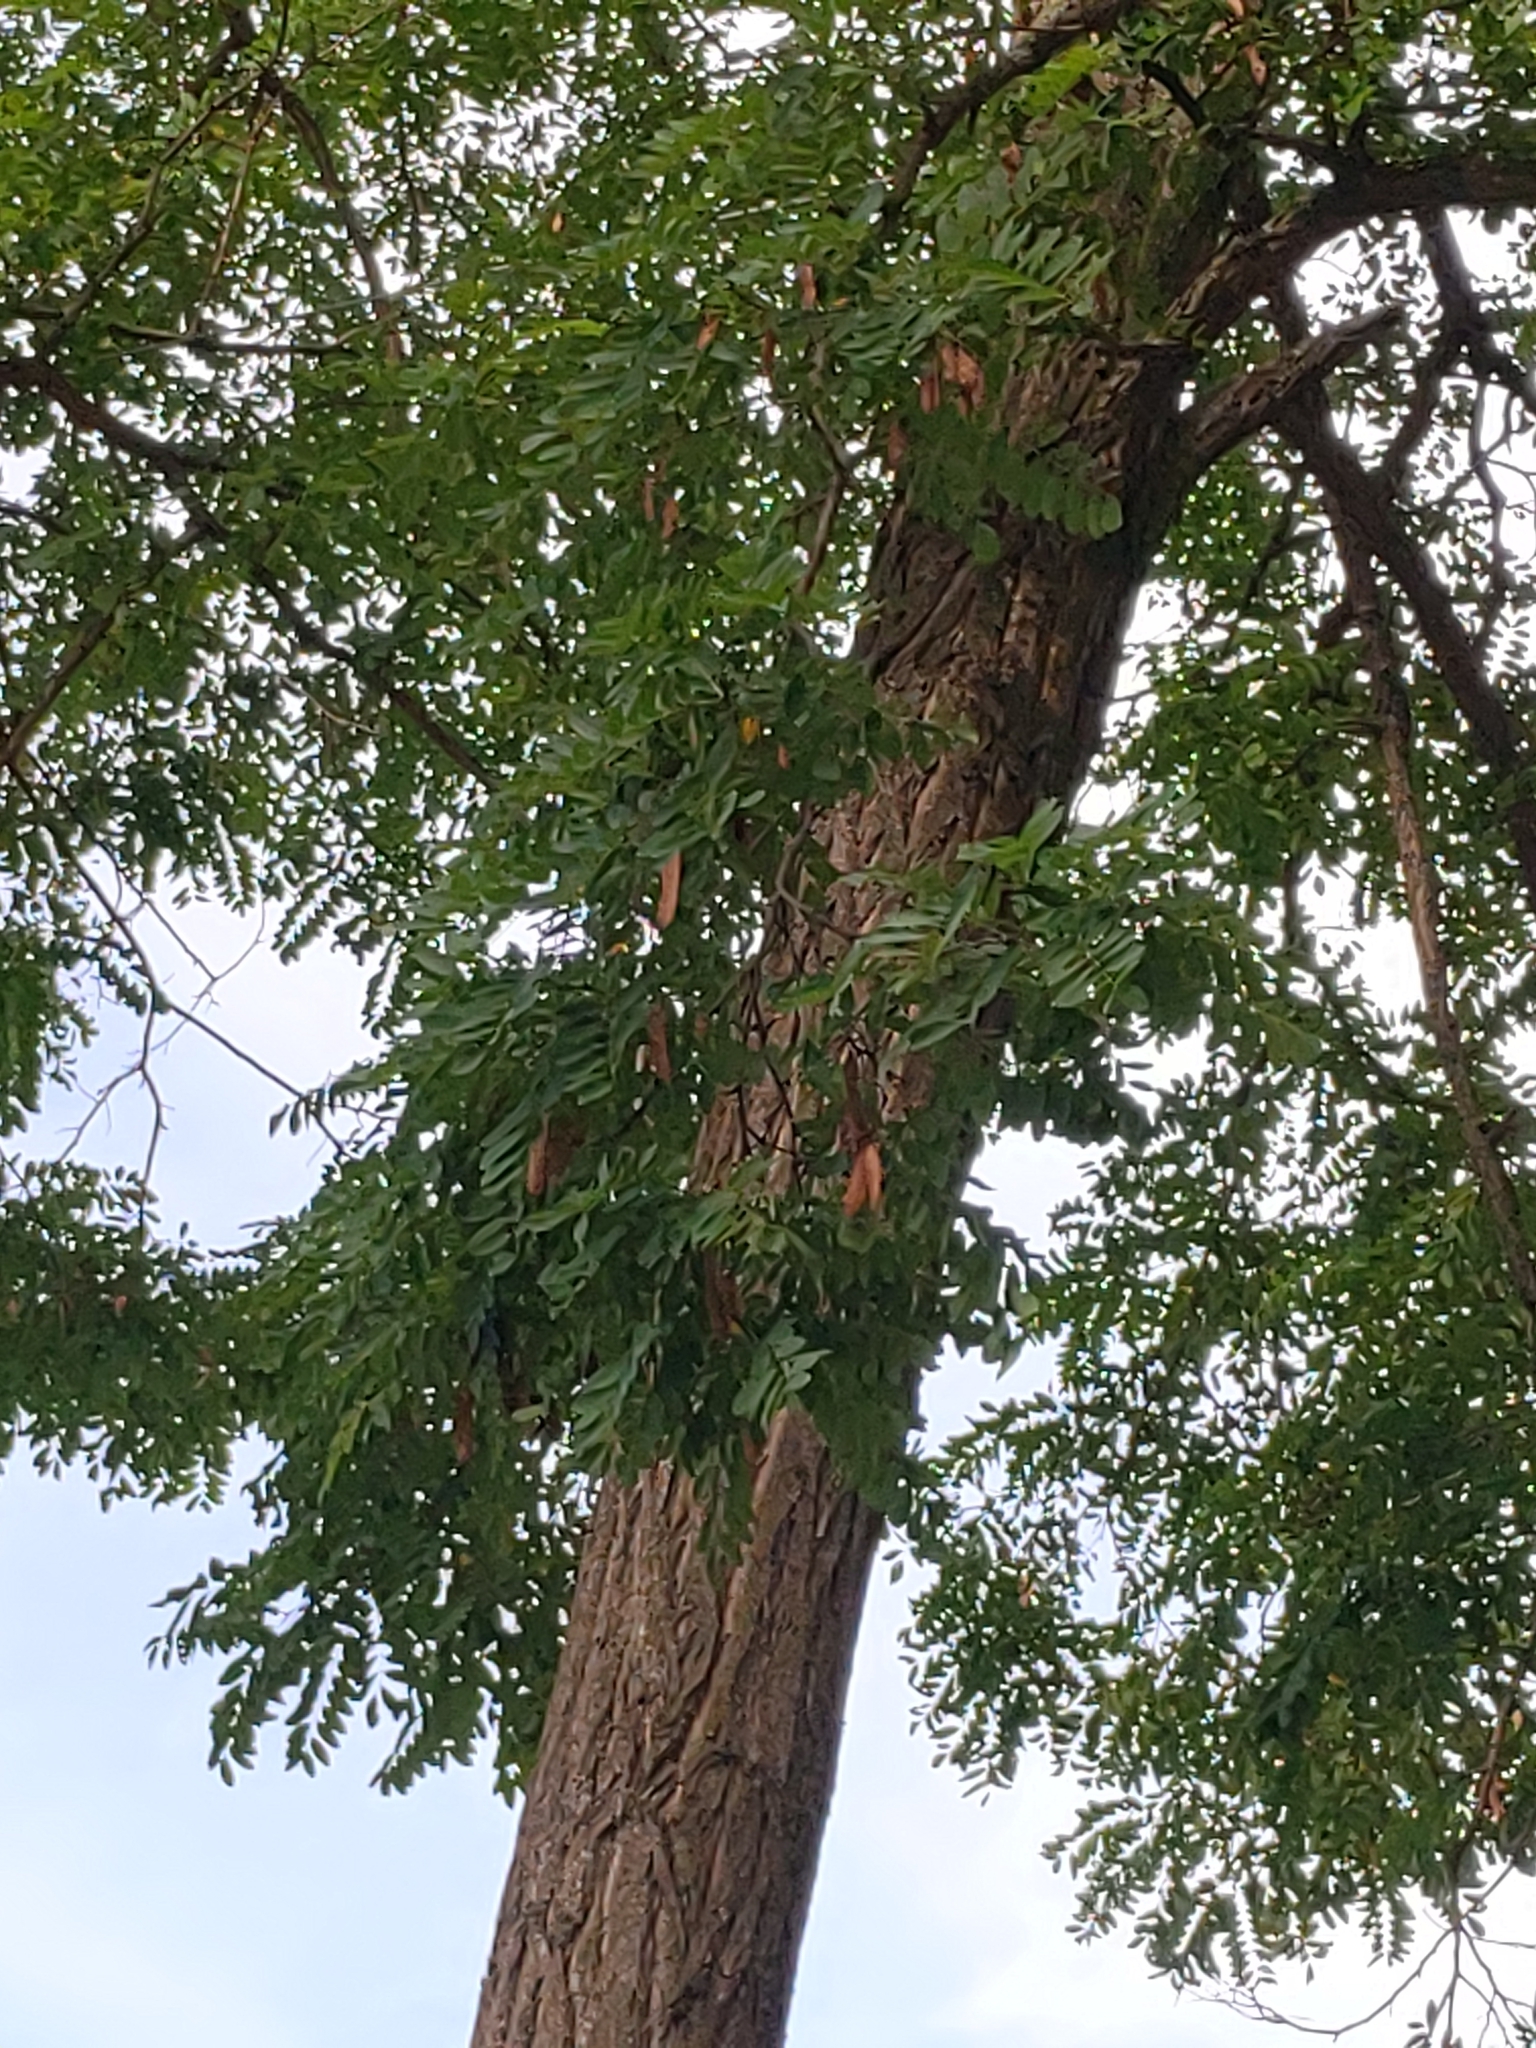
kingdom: Plantae
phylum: Tracheophyta
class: Magnoliopsida
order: Fabales
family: Fabaceae
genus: Robinia
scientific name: Robinia pseudoacacia
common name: Black locust
